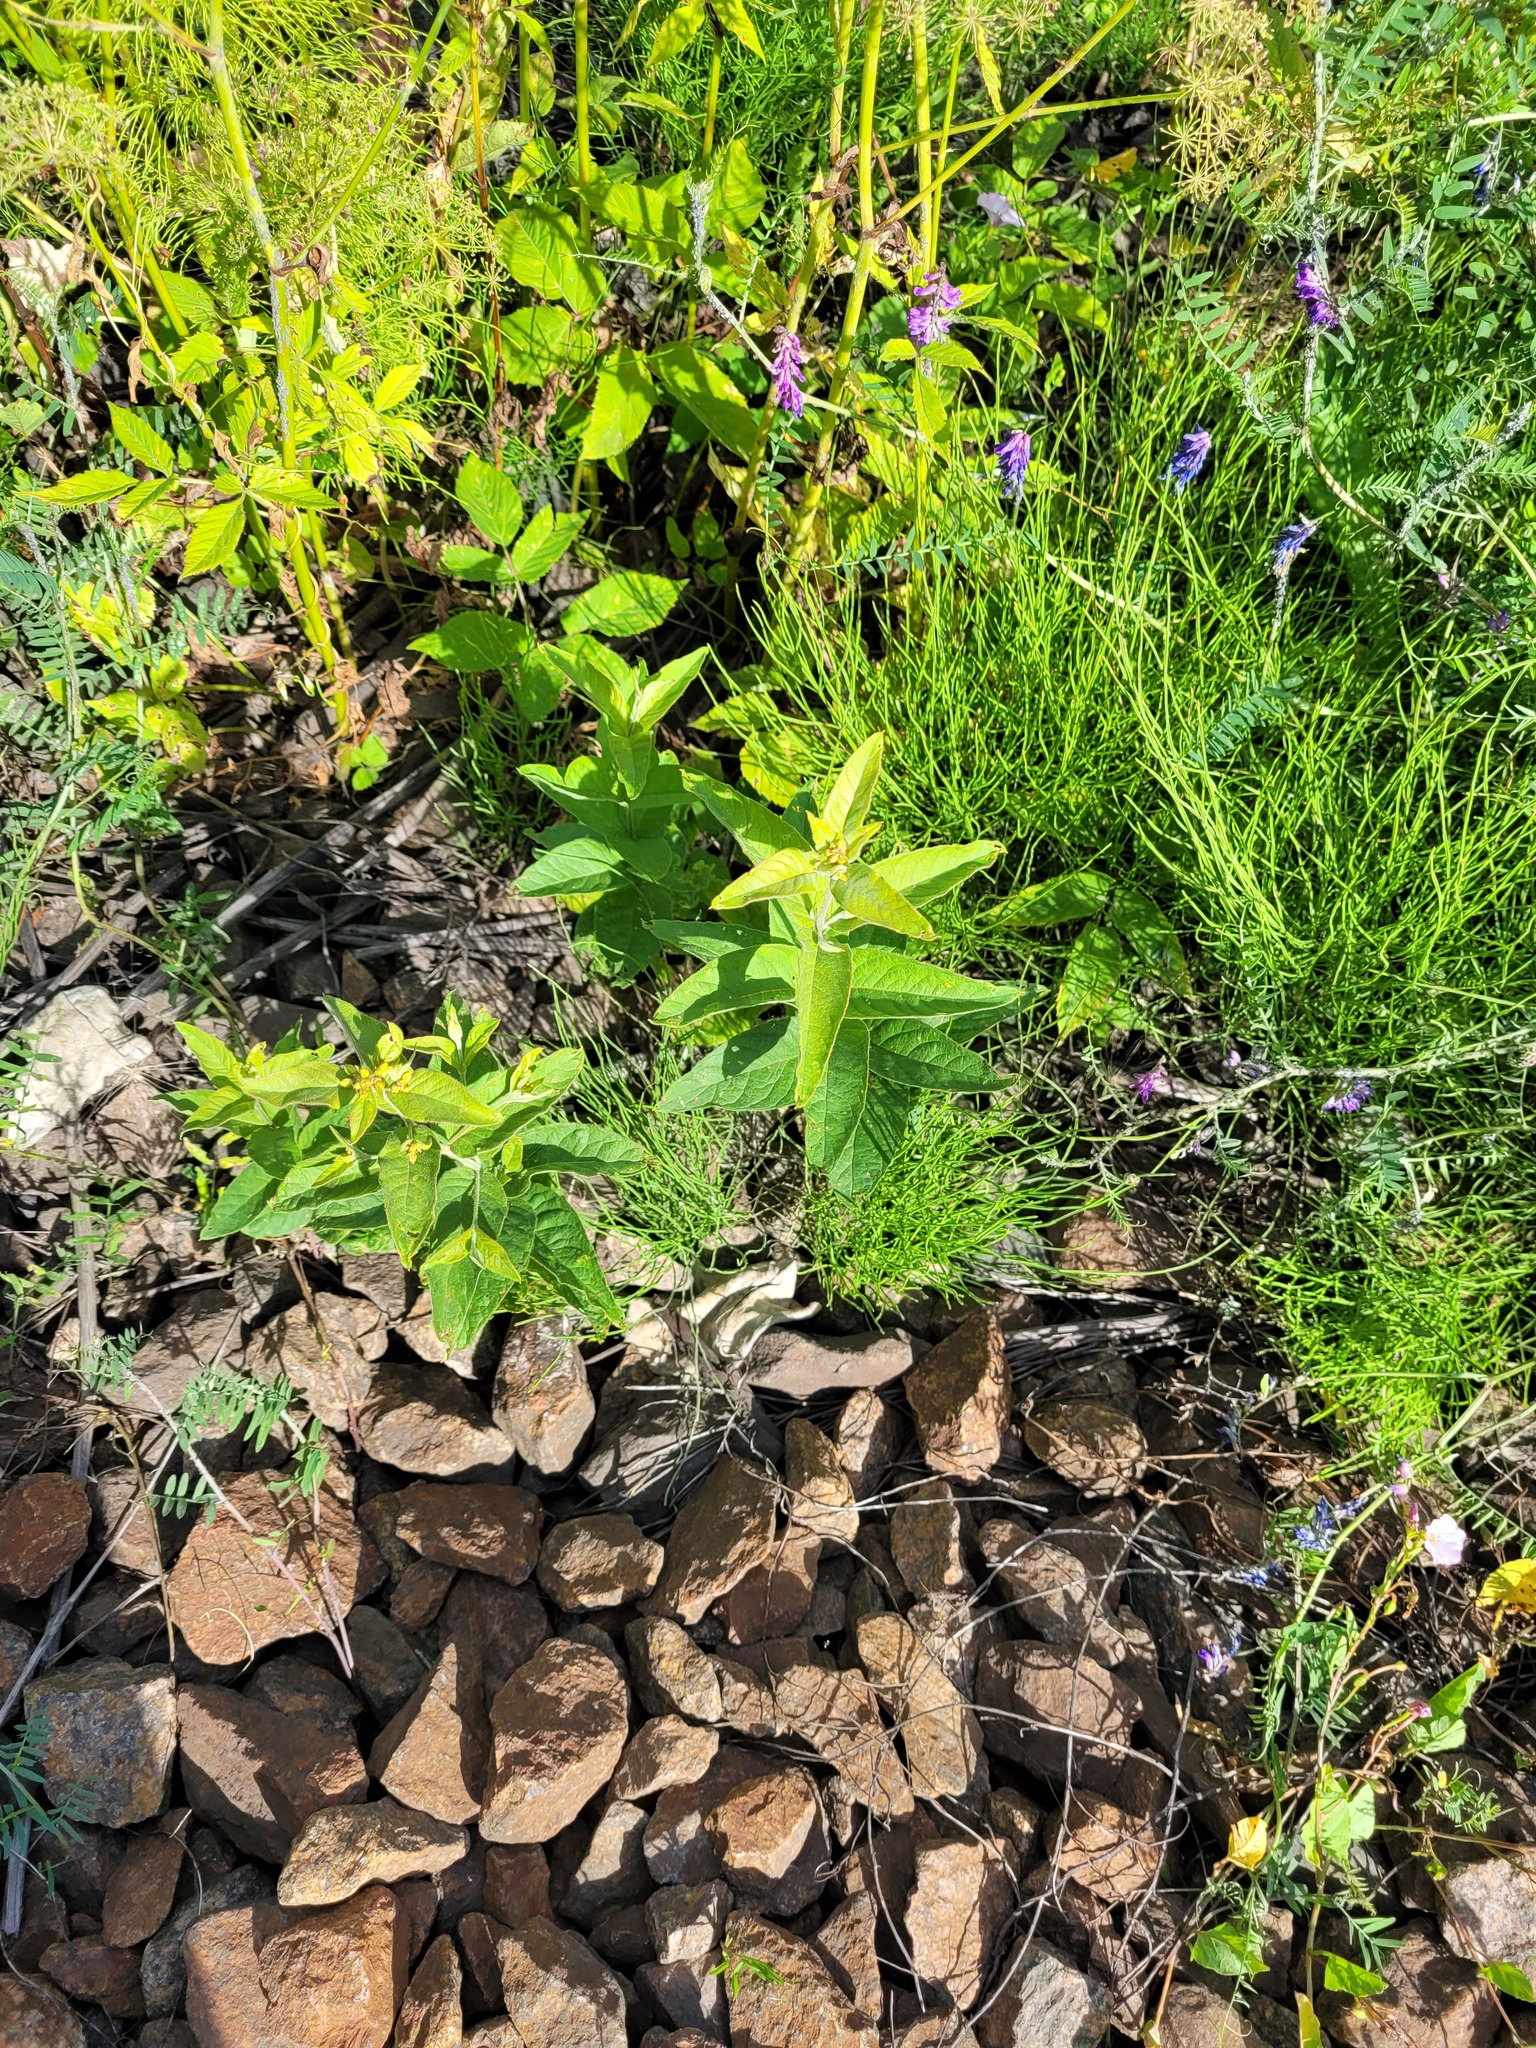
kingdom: Plantae
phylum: Tracheophyta
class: Magnoliopsida
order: Ericales
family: Primulaceae
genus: Lysimachia
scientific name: Lysimachia vulgaris
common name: Yellow loosestrife
